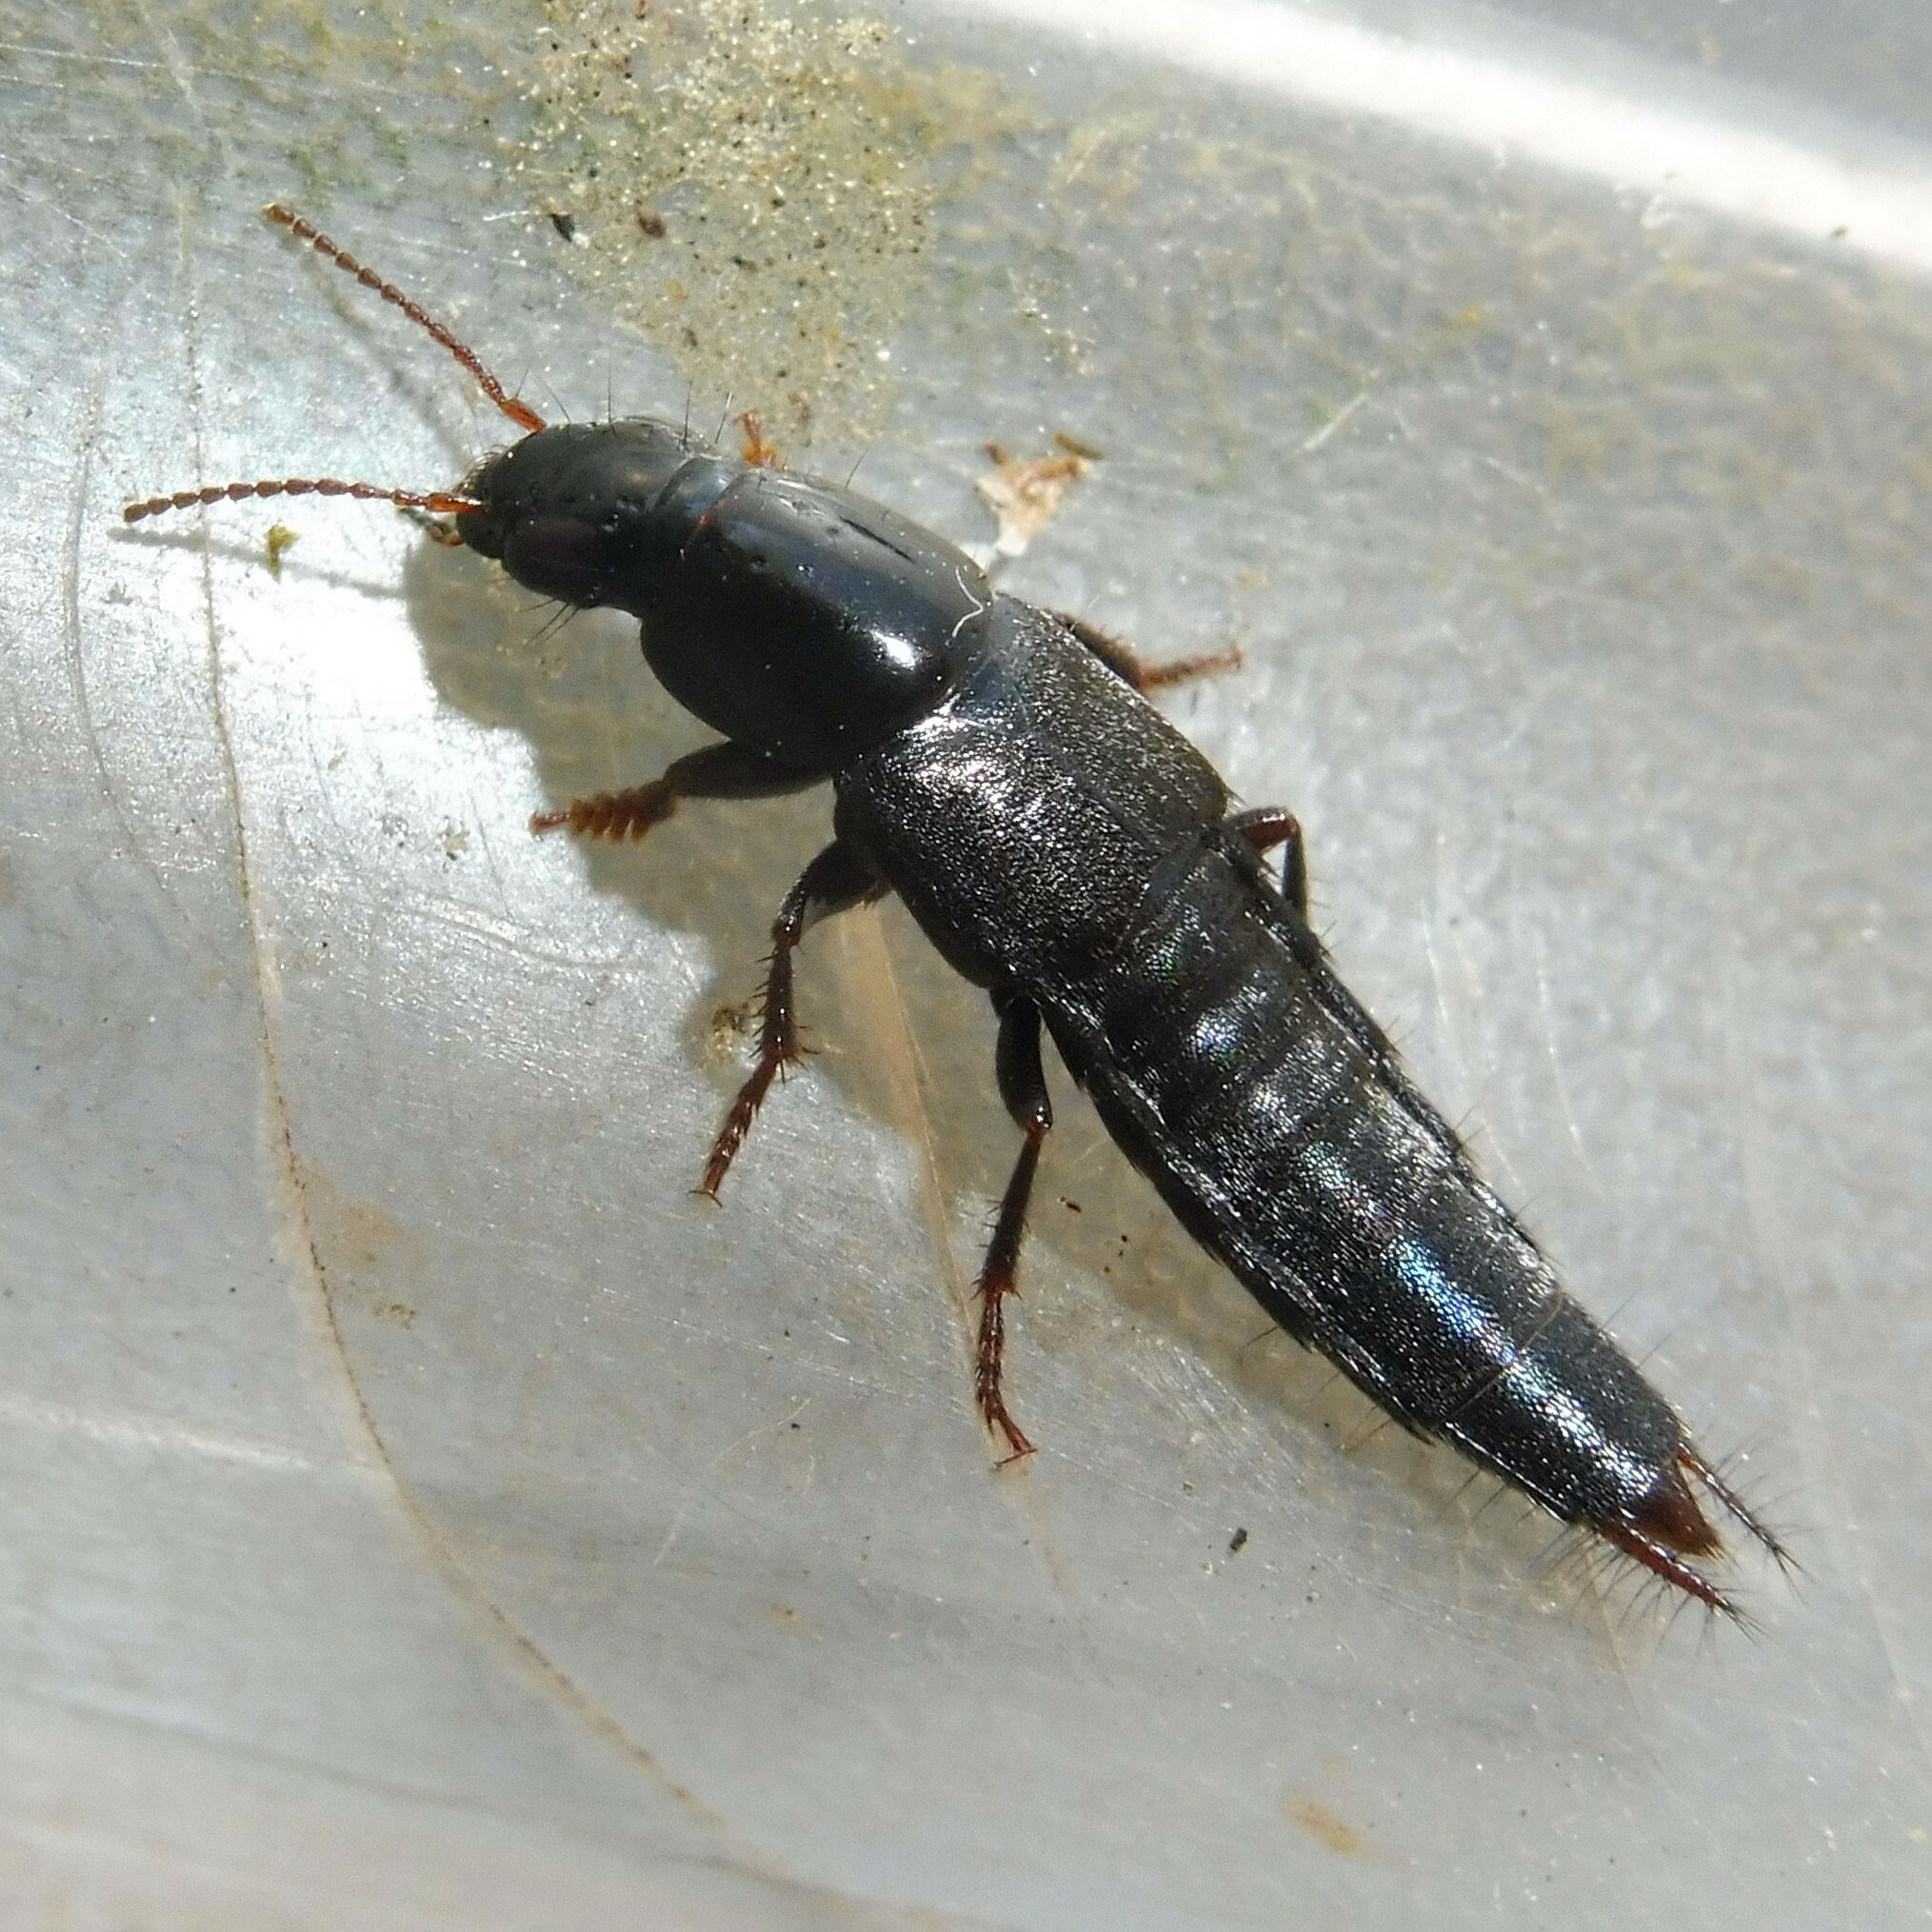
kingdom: Animalia
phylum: Arthropoda
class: Insecta
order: Coleoptera
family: Staphylinidae
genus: Quedius
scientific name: Quedius levicollis
